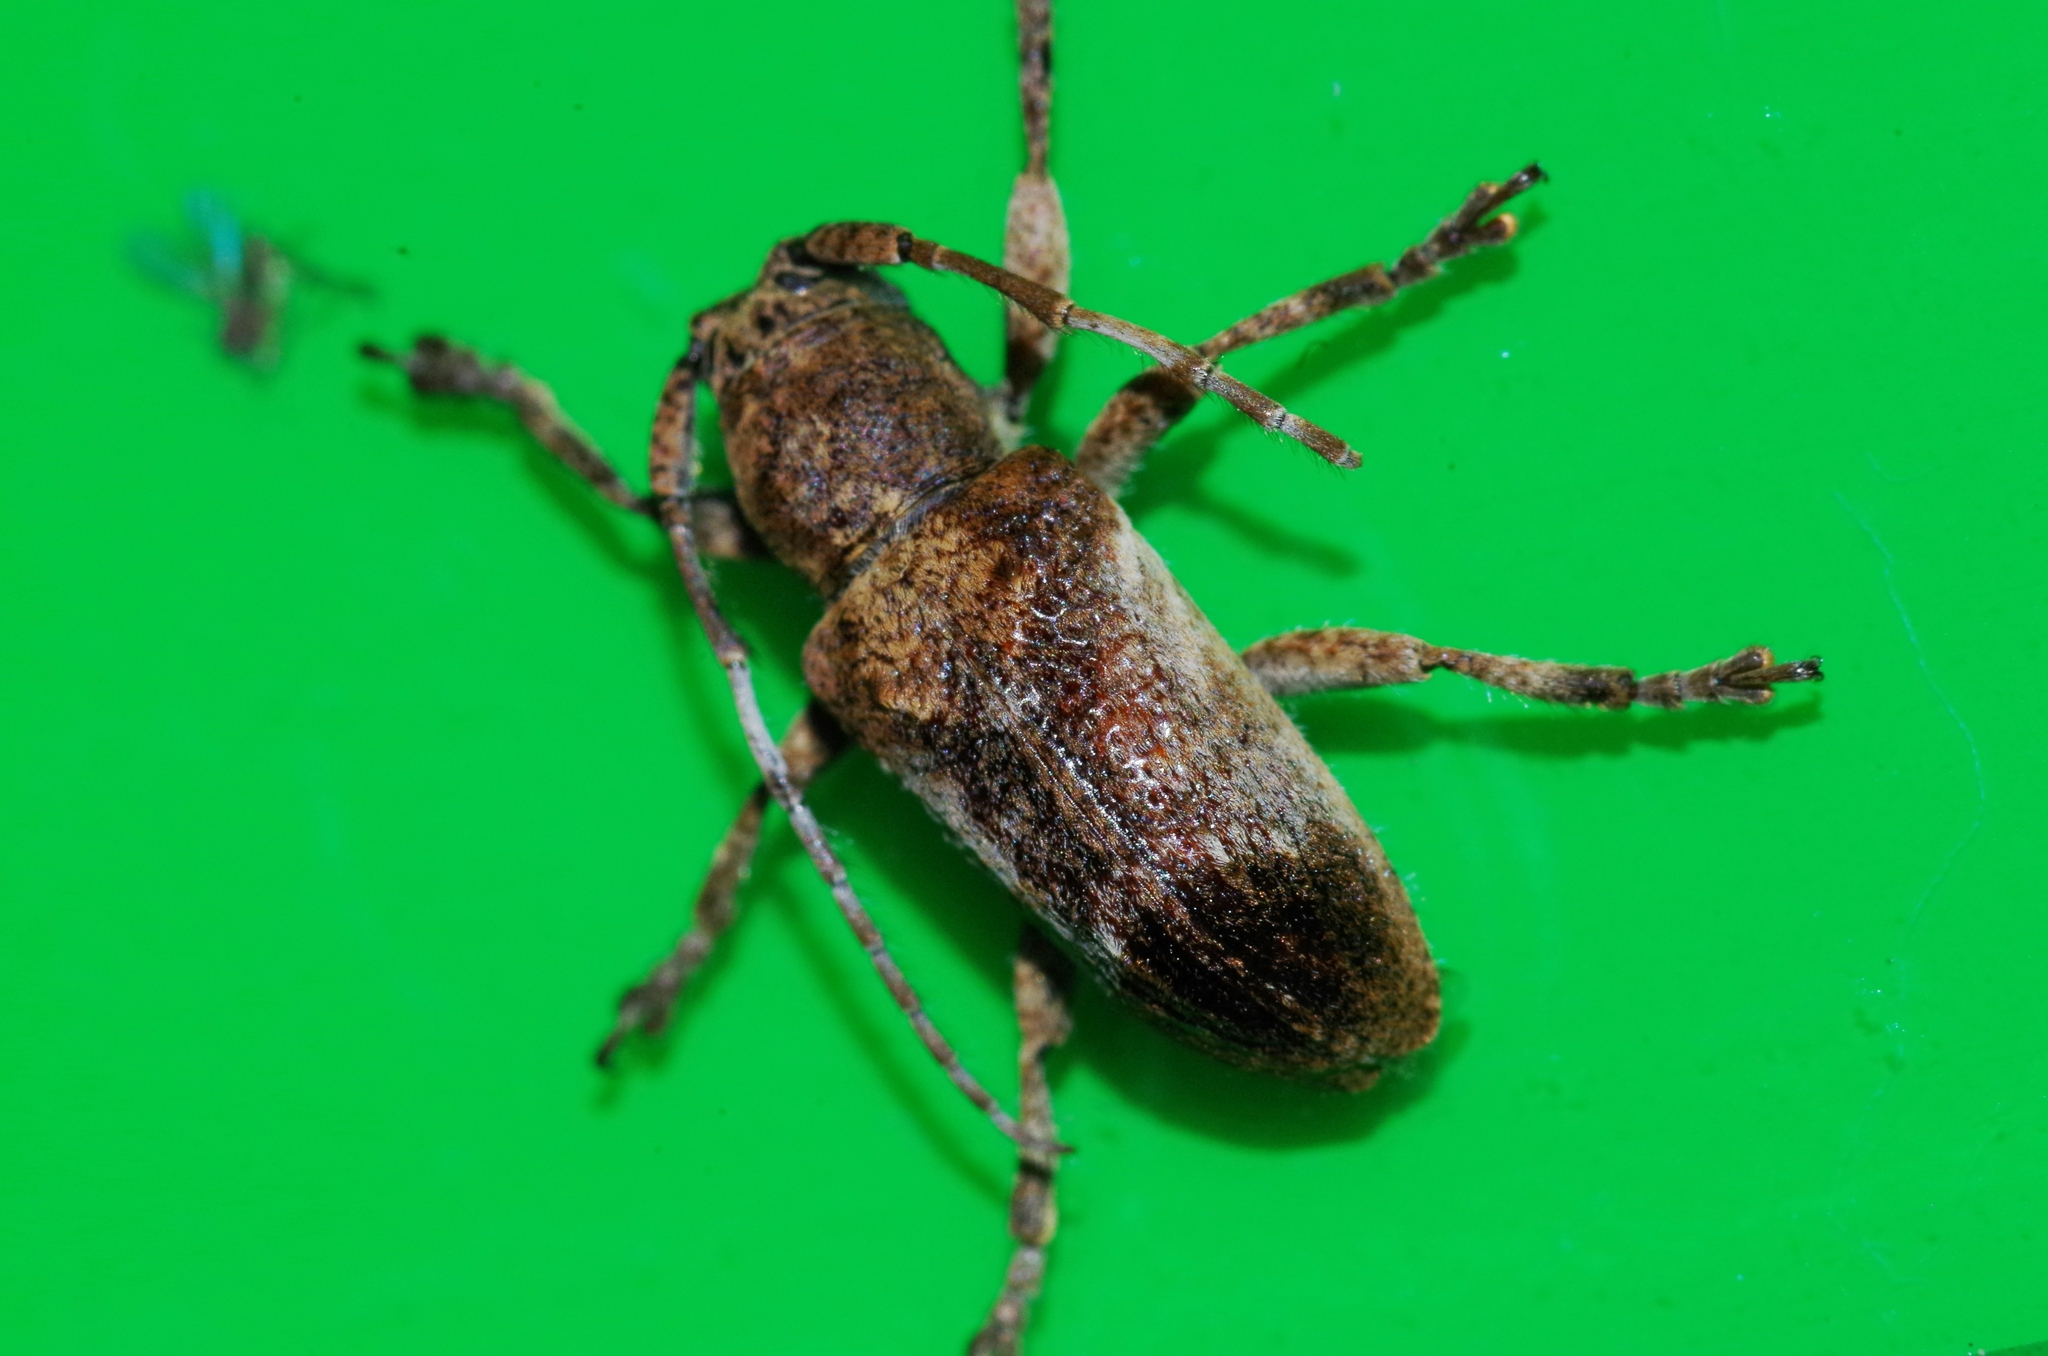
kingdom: Animalia
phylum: Arthropoda
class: Insecta
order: Coleoptera
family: Cerambycidae
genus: Pterolophia
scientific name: Pterolophia annulata
